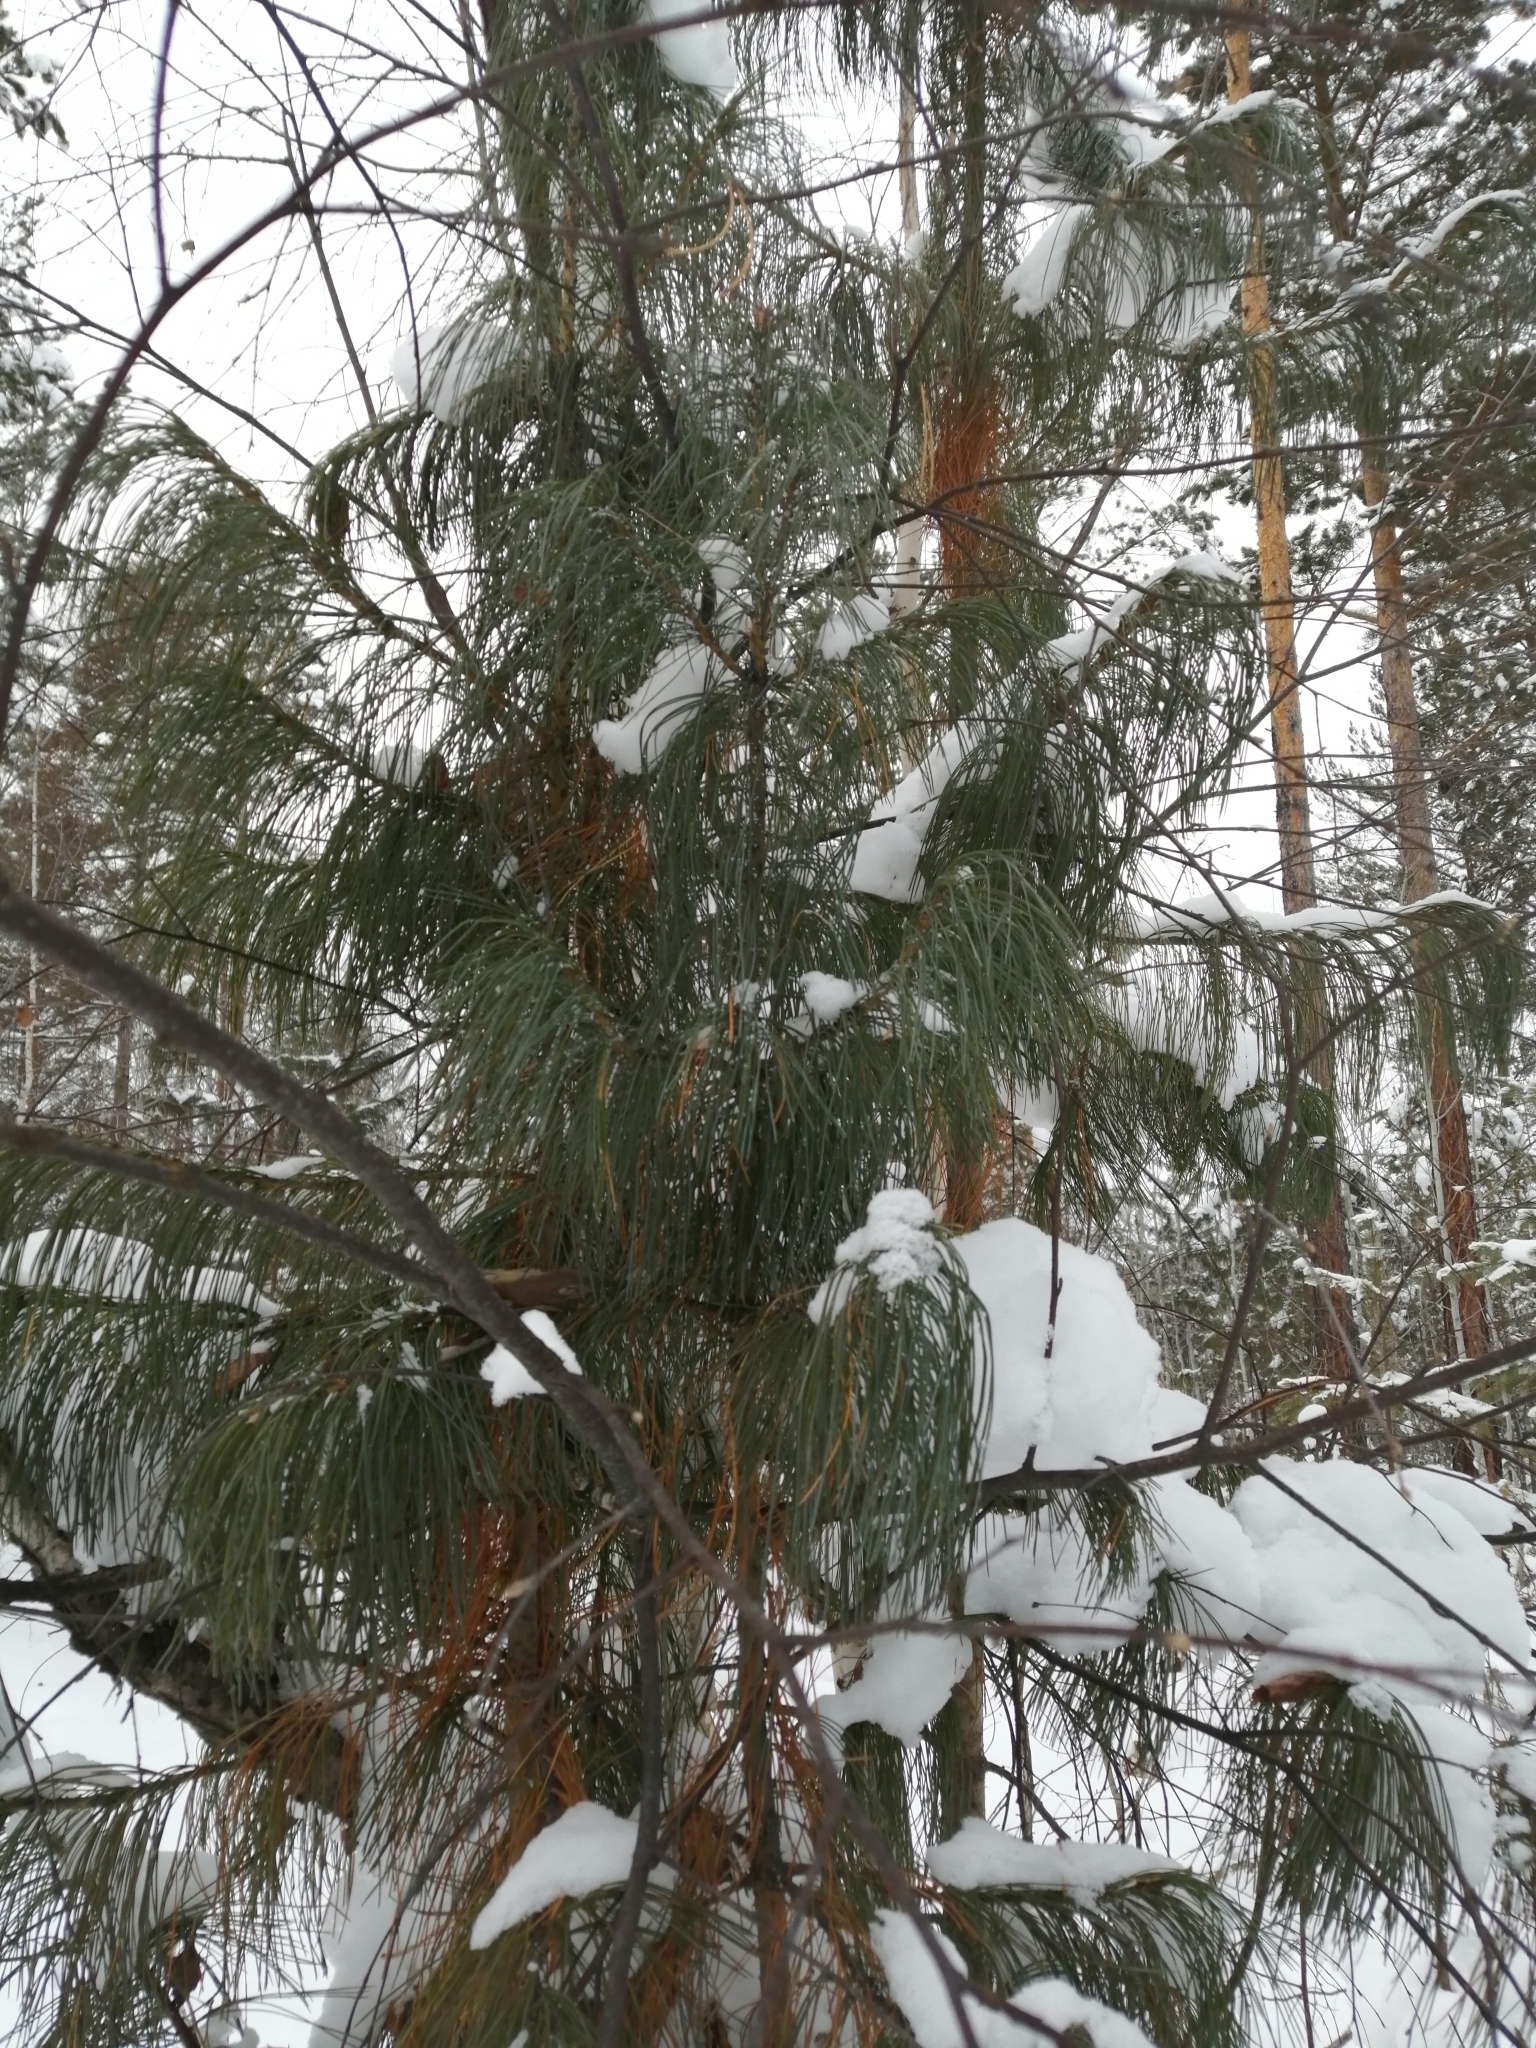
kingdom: Plantae
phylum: Tracheophyta
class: Pinopsida
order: Pinales
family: Pinaceae
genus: Pinus
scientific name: Pinus sibirica
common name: Siberian pine
